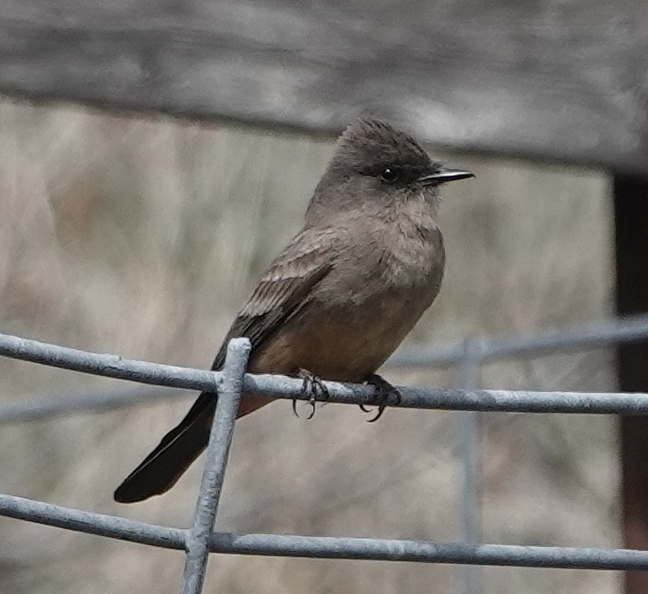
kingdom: Animalia
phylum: Chordata
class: Aves
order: Passeriformes
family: Tyrannidae
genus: Sayornis
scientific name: Sayornis saya
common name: Say's phoebe
